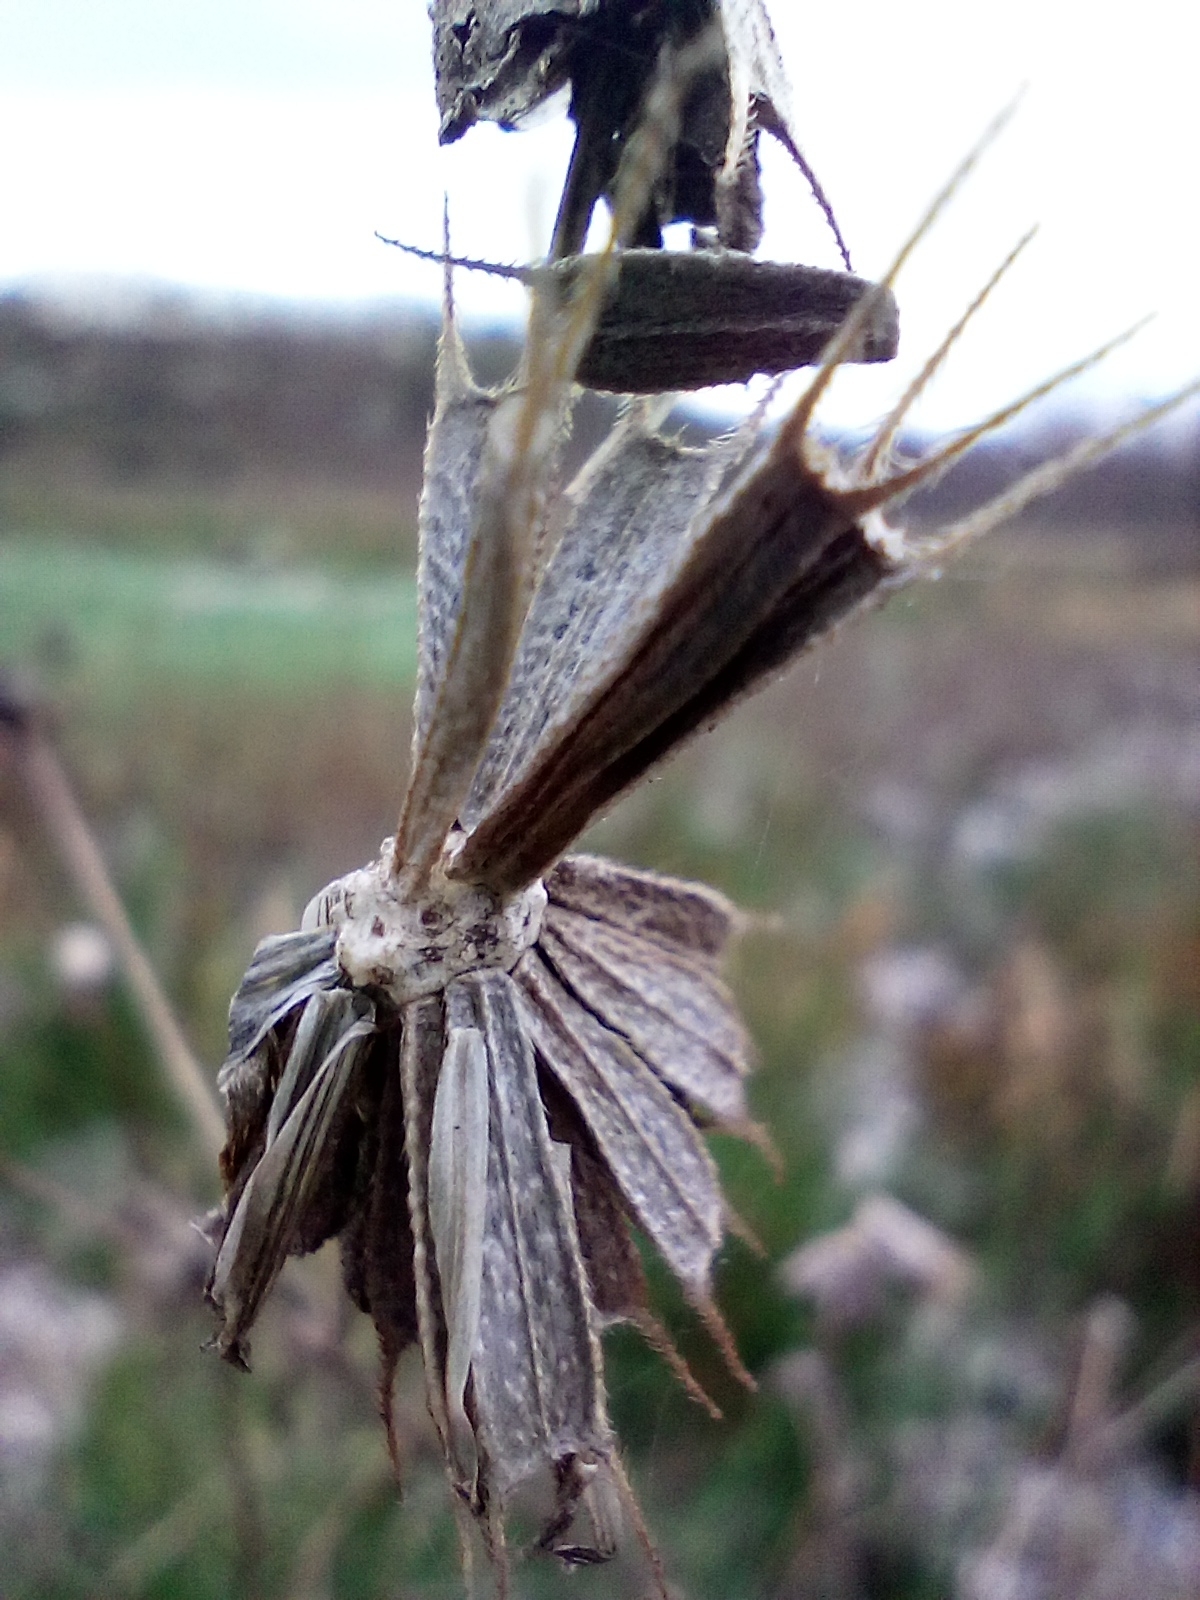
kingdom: Plantae
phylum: Tracheophyta
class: Magnoliopsida
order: Asterales
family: Asteraceae
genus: Bidens
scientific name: Bidens frondosa
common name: Beggarticks
